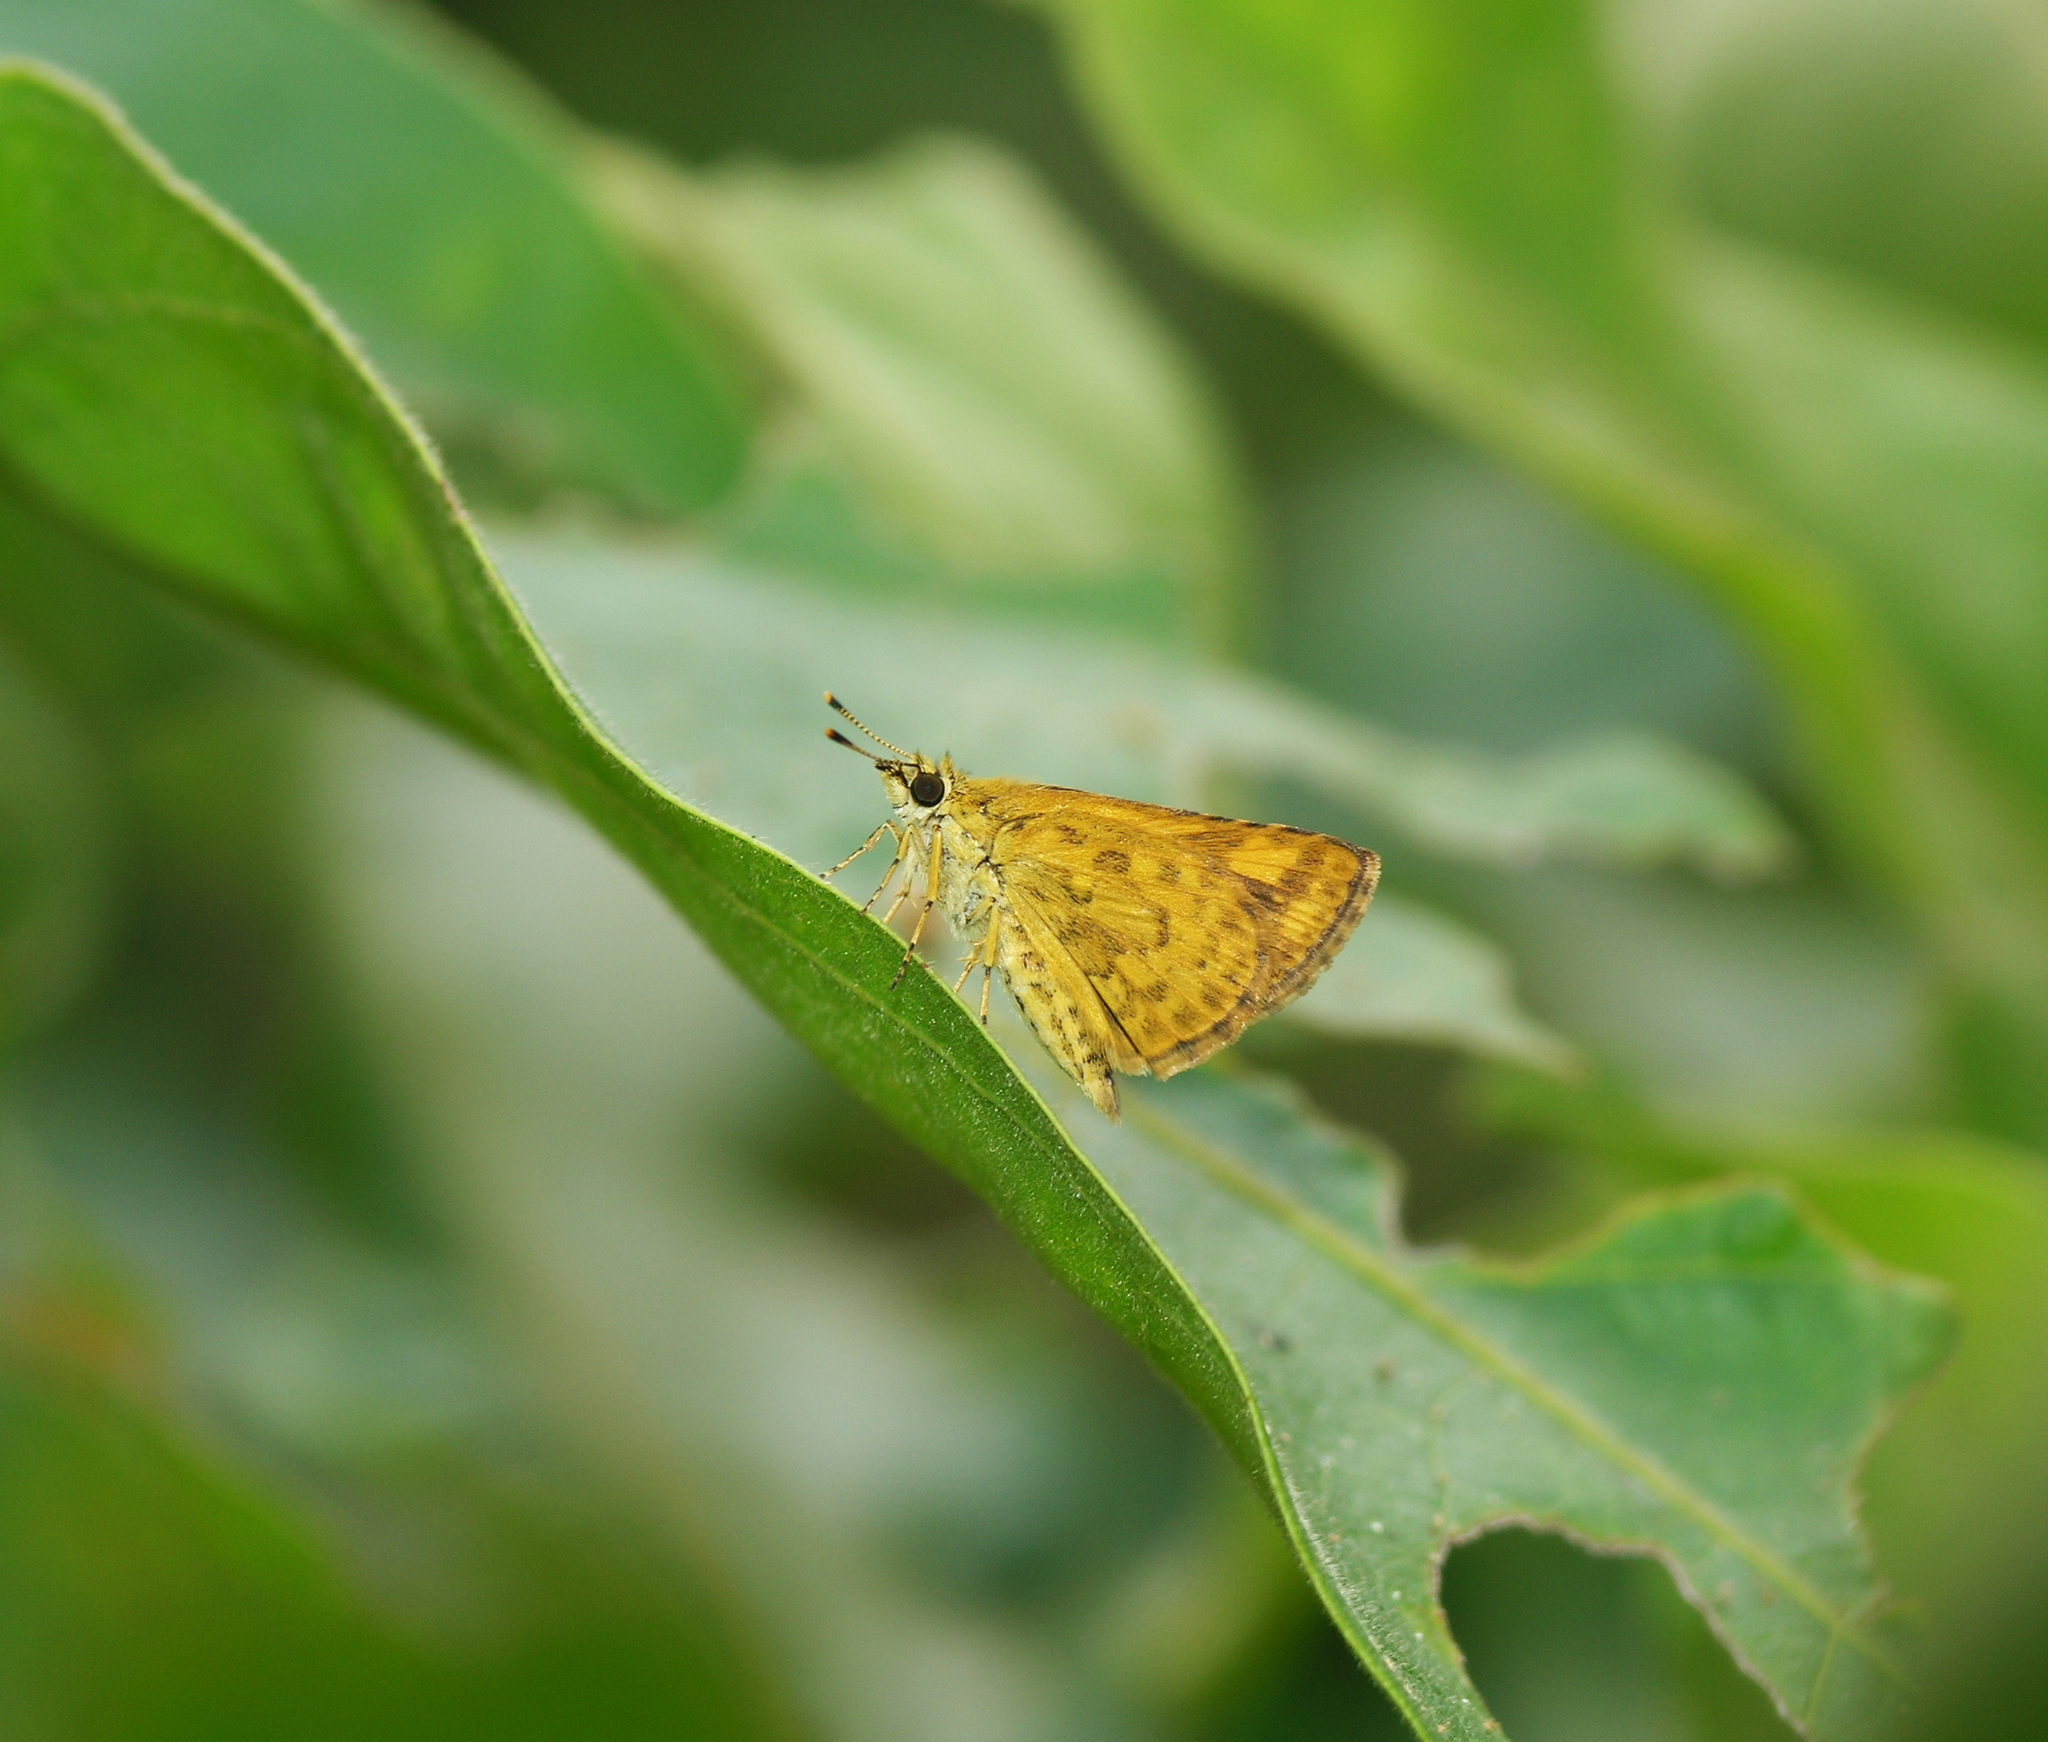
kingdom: Animalia
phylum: Arthropoda
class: Insecta
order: Lepidoptera
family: Hesperiidae
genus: Ampittia
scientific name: Ampittia dioscorides
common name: Common bush hopper
